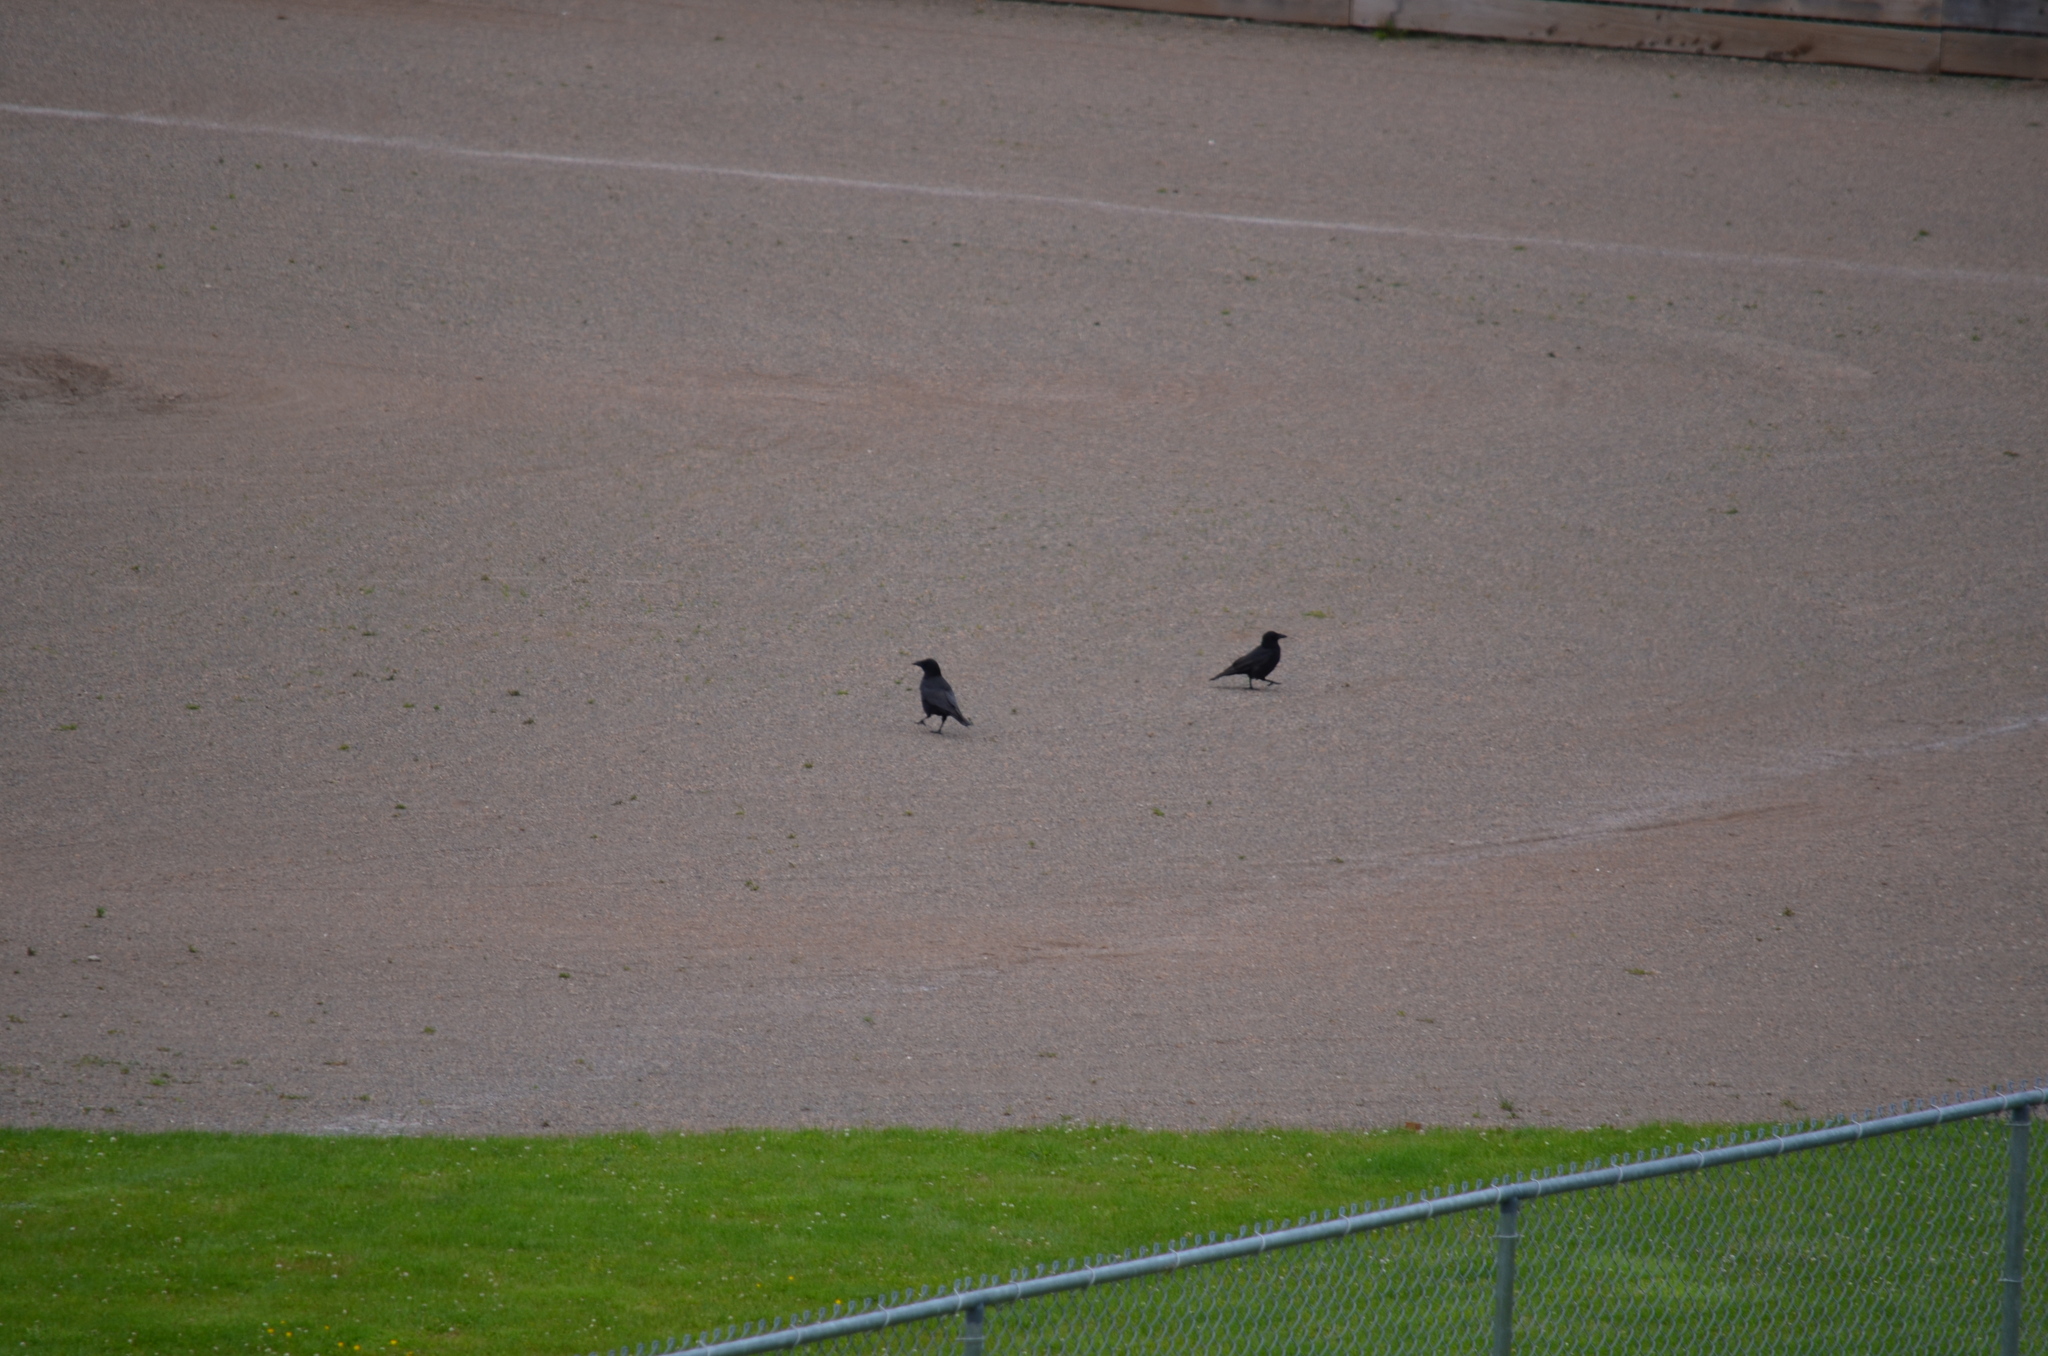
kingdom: Animalia
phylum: Chordata
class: Aves
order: Passeriformes
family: Corvidae
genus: Corvus
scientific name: Corvus brachyrhynchos
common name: American crow
